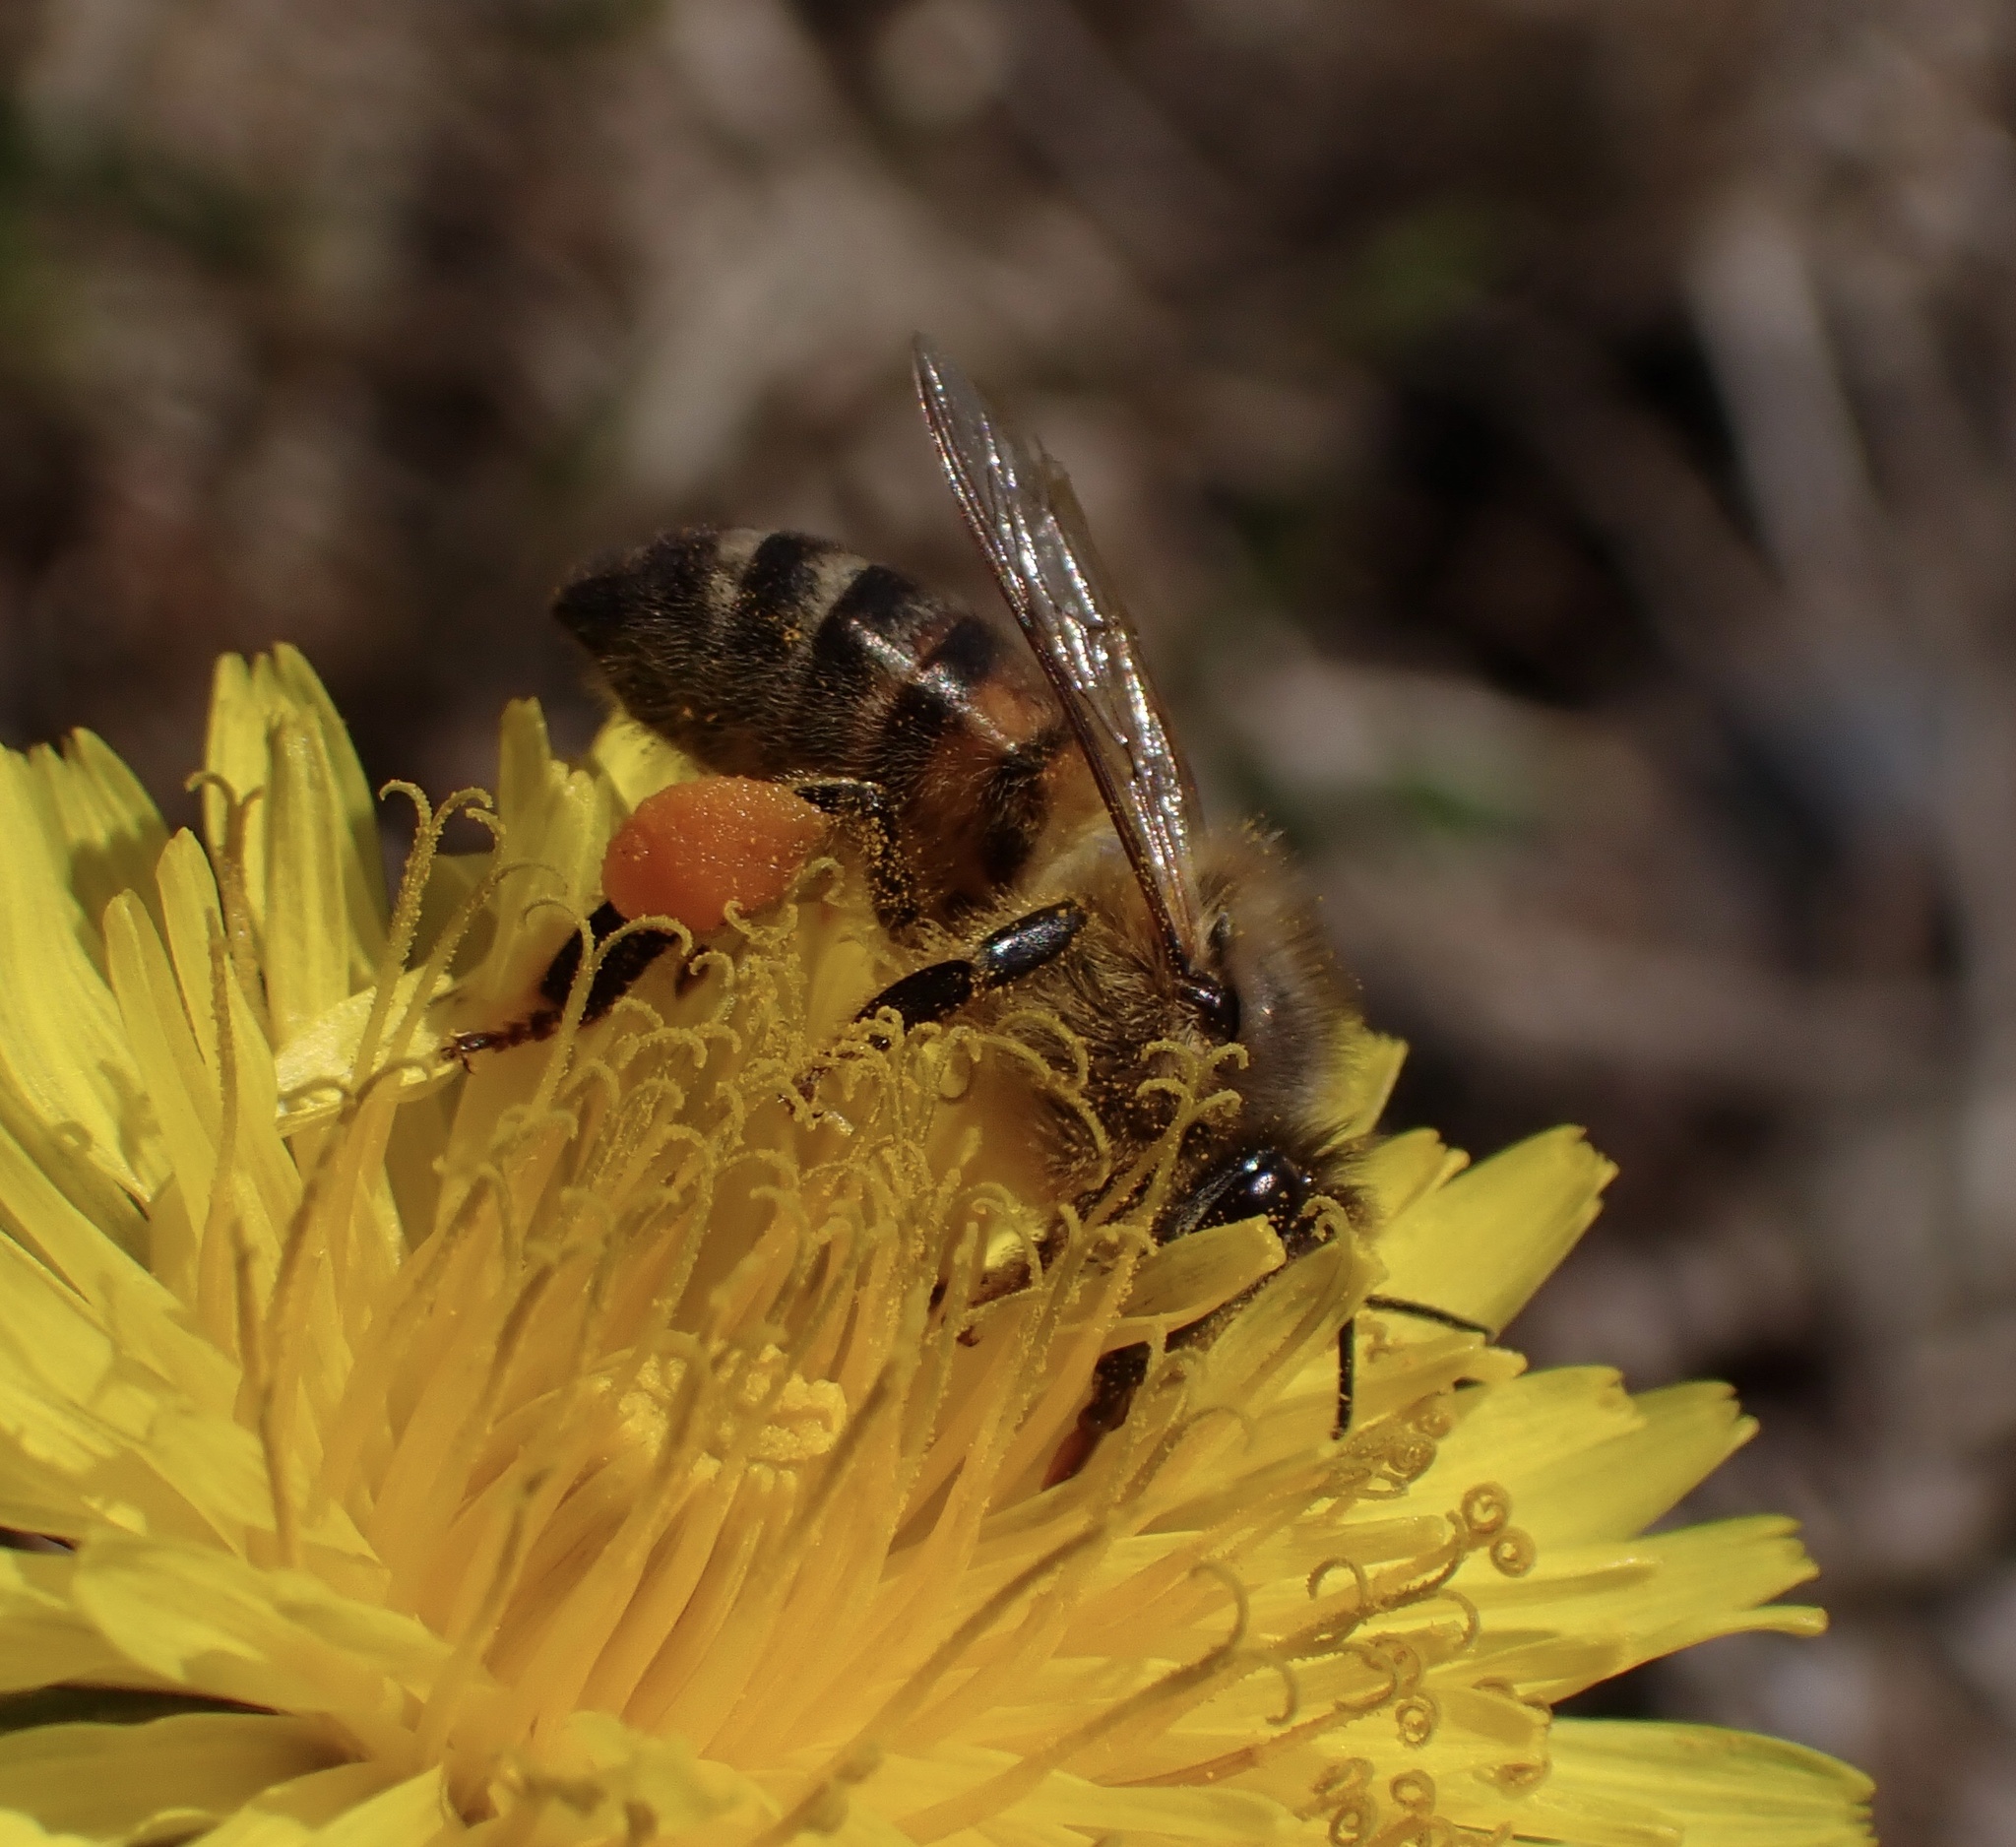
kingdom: Animalia
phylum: Arthropoda
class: Insecta
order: Hymenoptera
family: Apidae
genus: Apis
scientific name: Apis mellifera
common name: Honey bee
